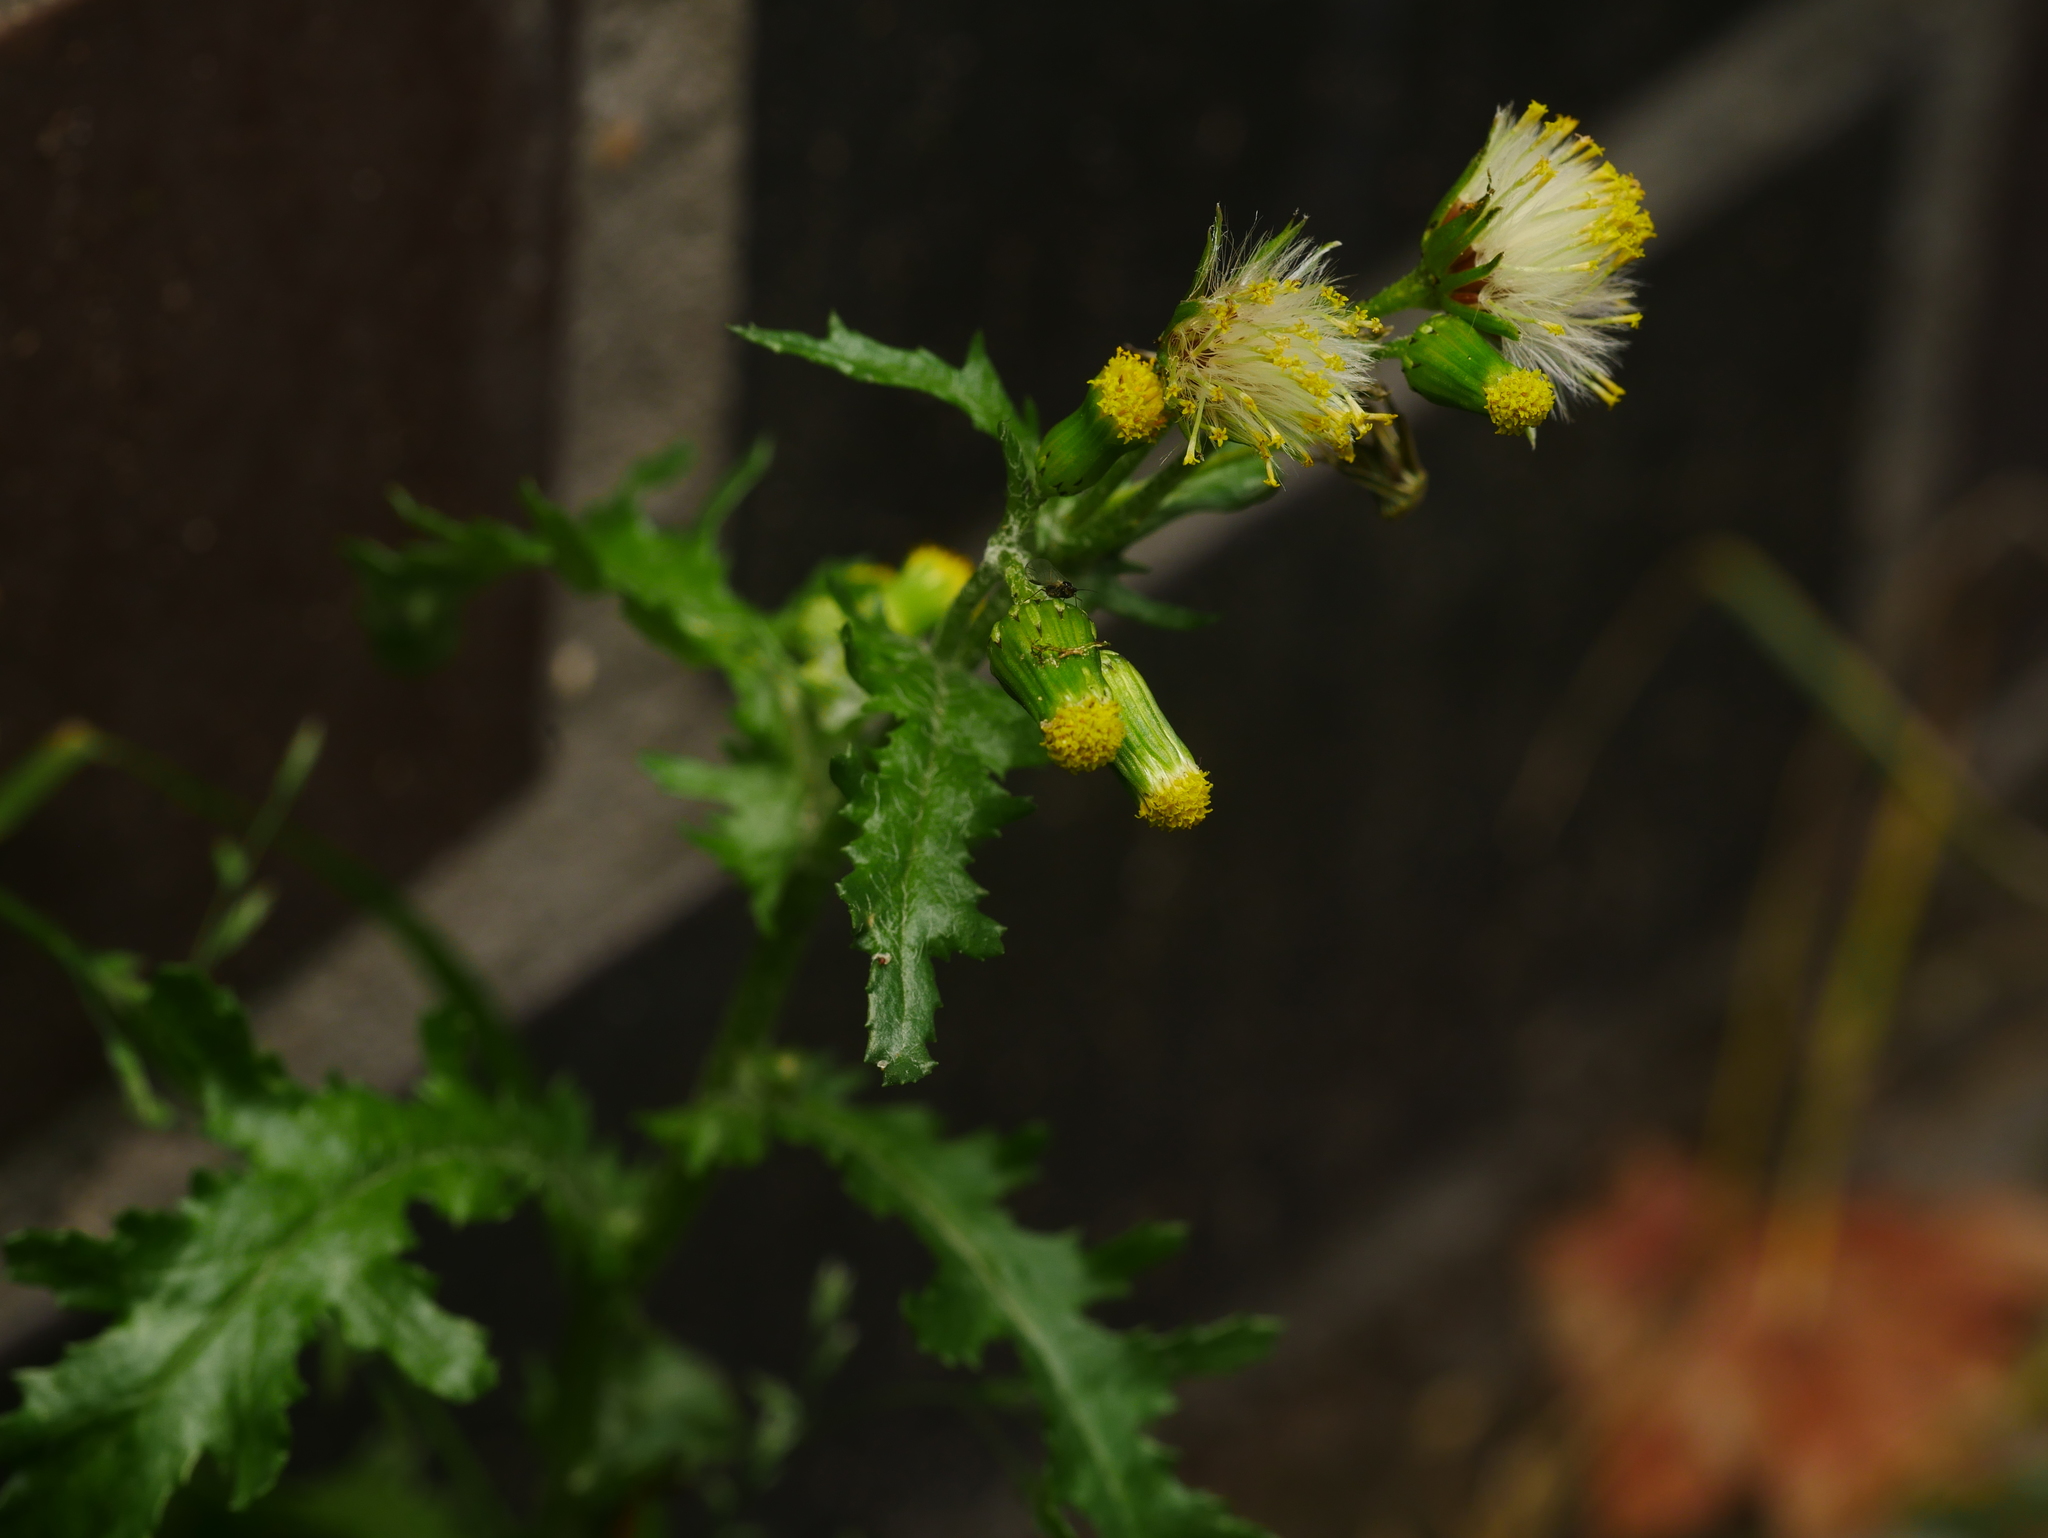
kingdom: Plantae
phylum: Tracheophyta
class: Magnoliopsida
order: Asterales
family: Asteraceae
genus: Senecio
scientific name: Senecio vulgaris
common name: Old-man-in-the-spring
